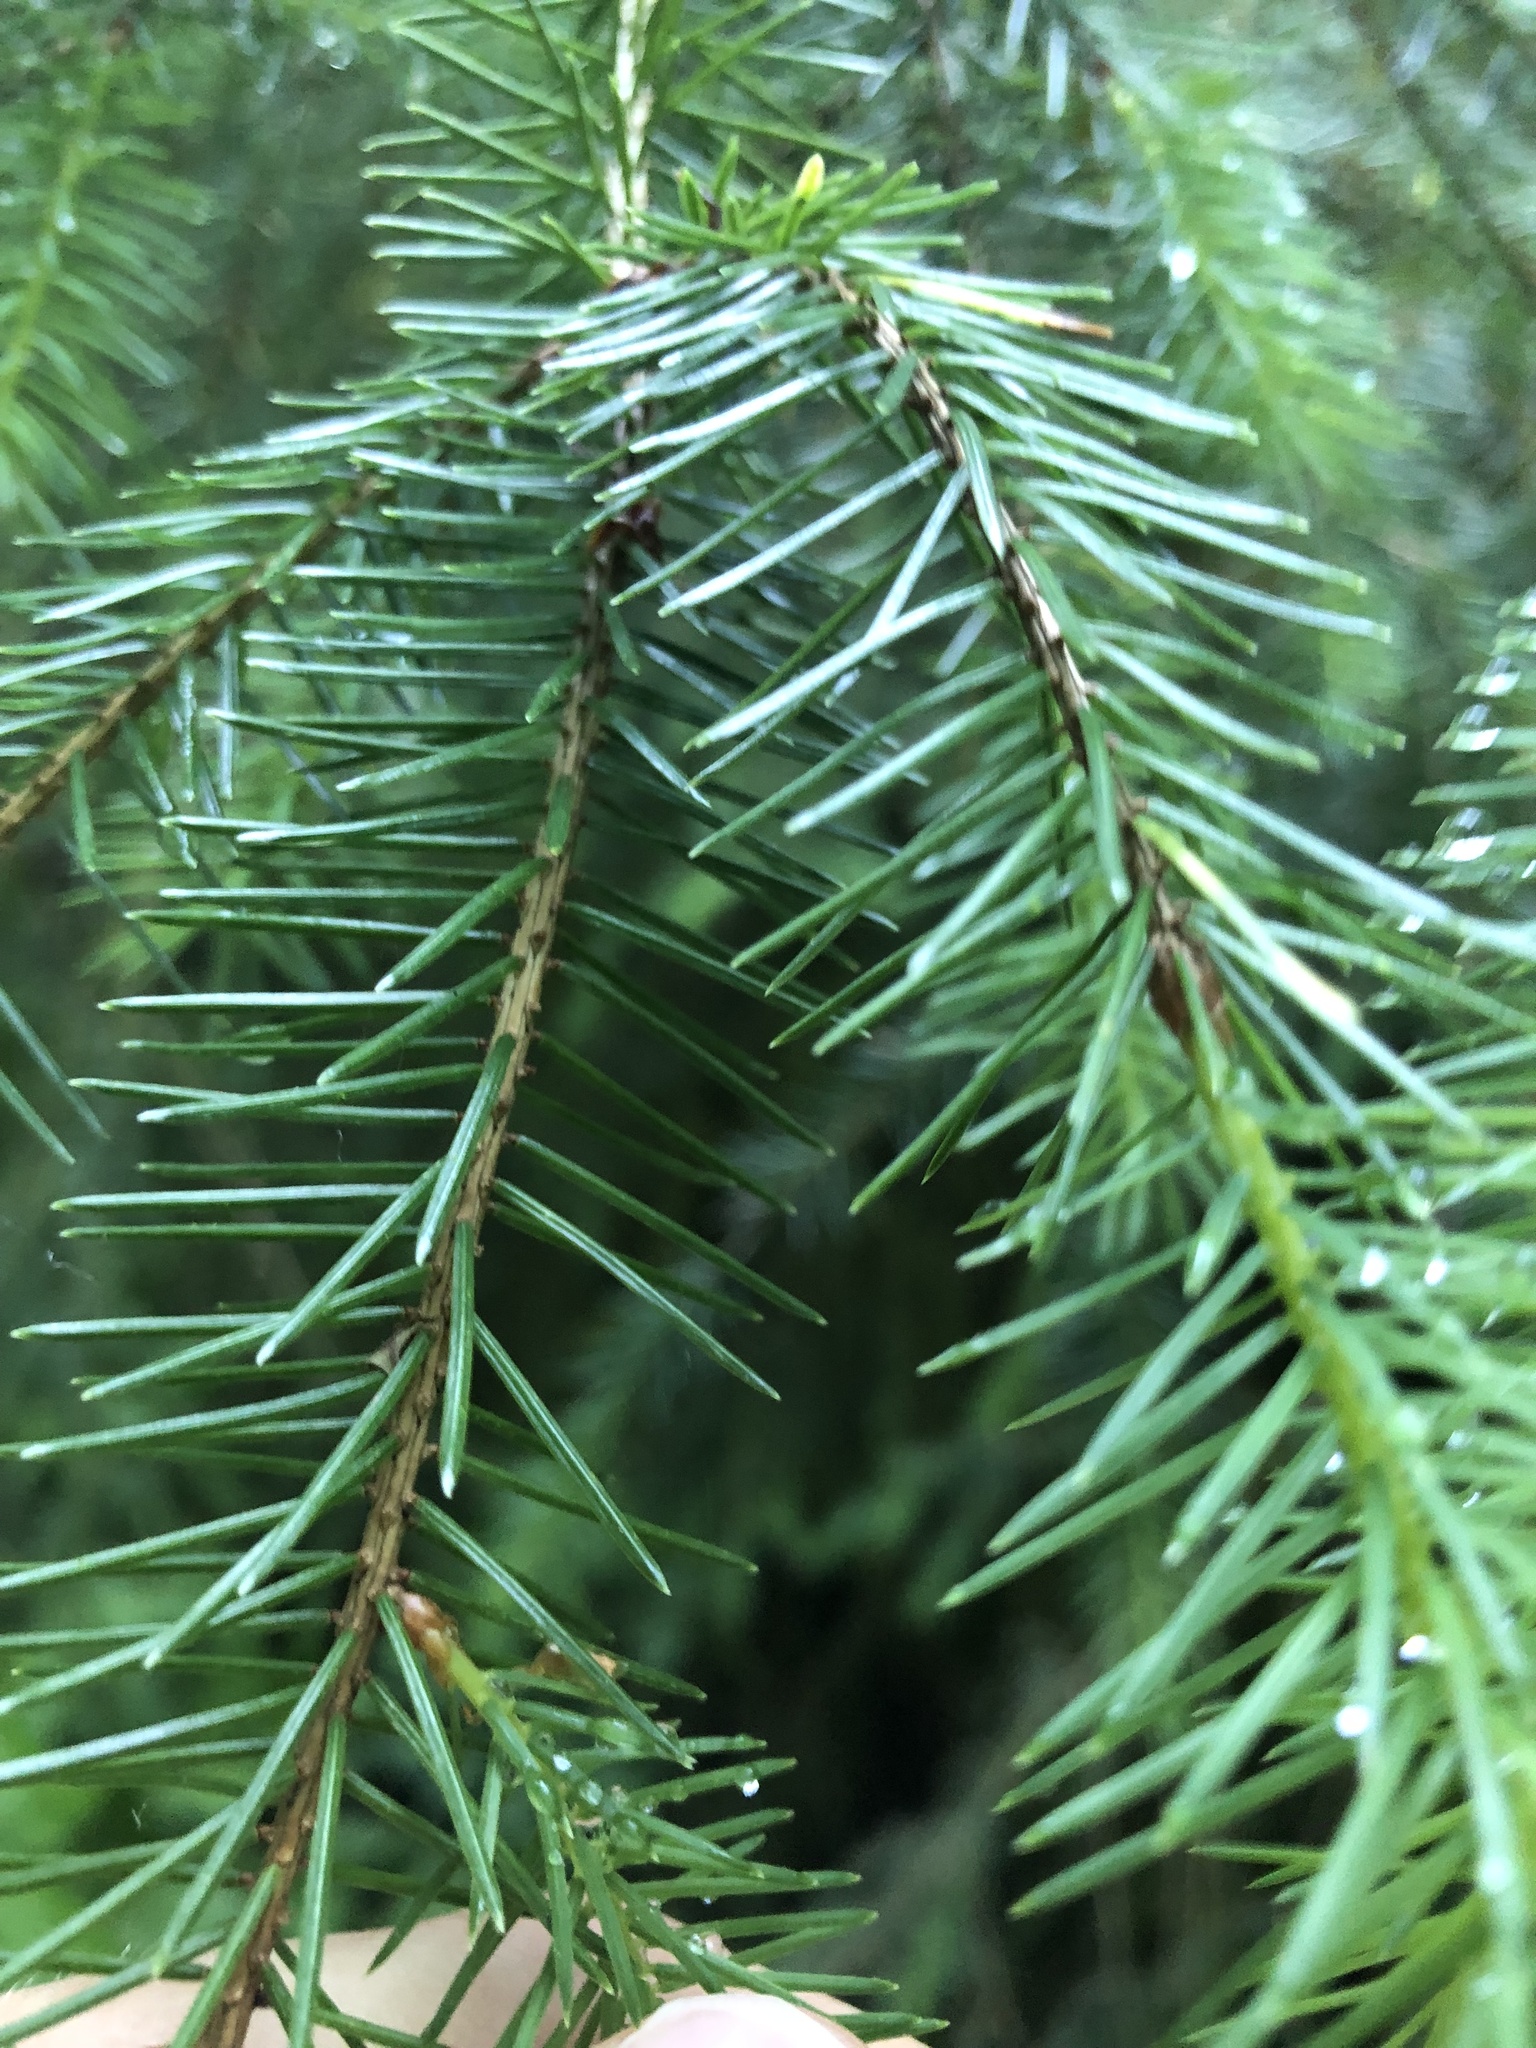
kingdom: Plantae
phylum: Tracheophyta
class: Pinopsida
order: Pinales
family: Pinaceae
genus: Picea
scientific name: Picea sitchensis
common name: Sitka spruce
